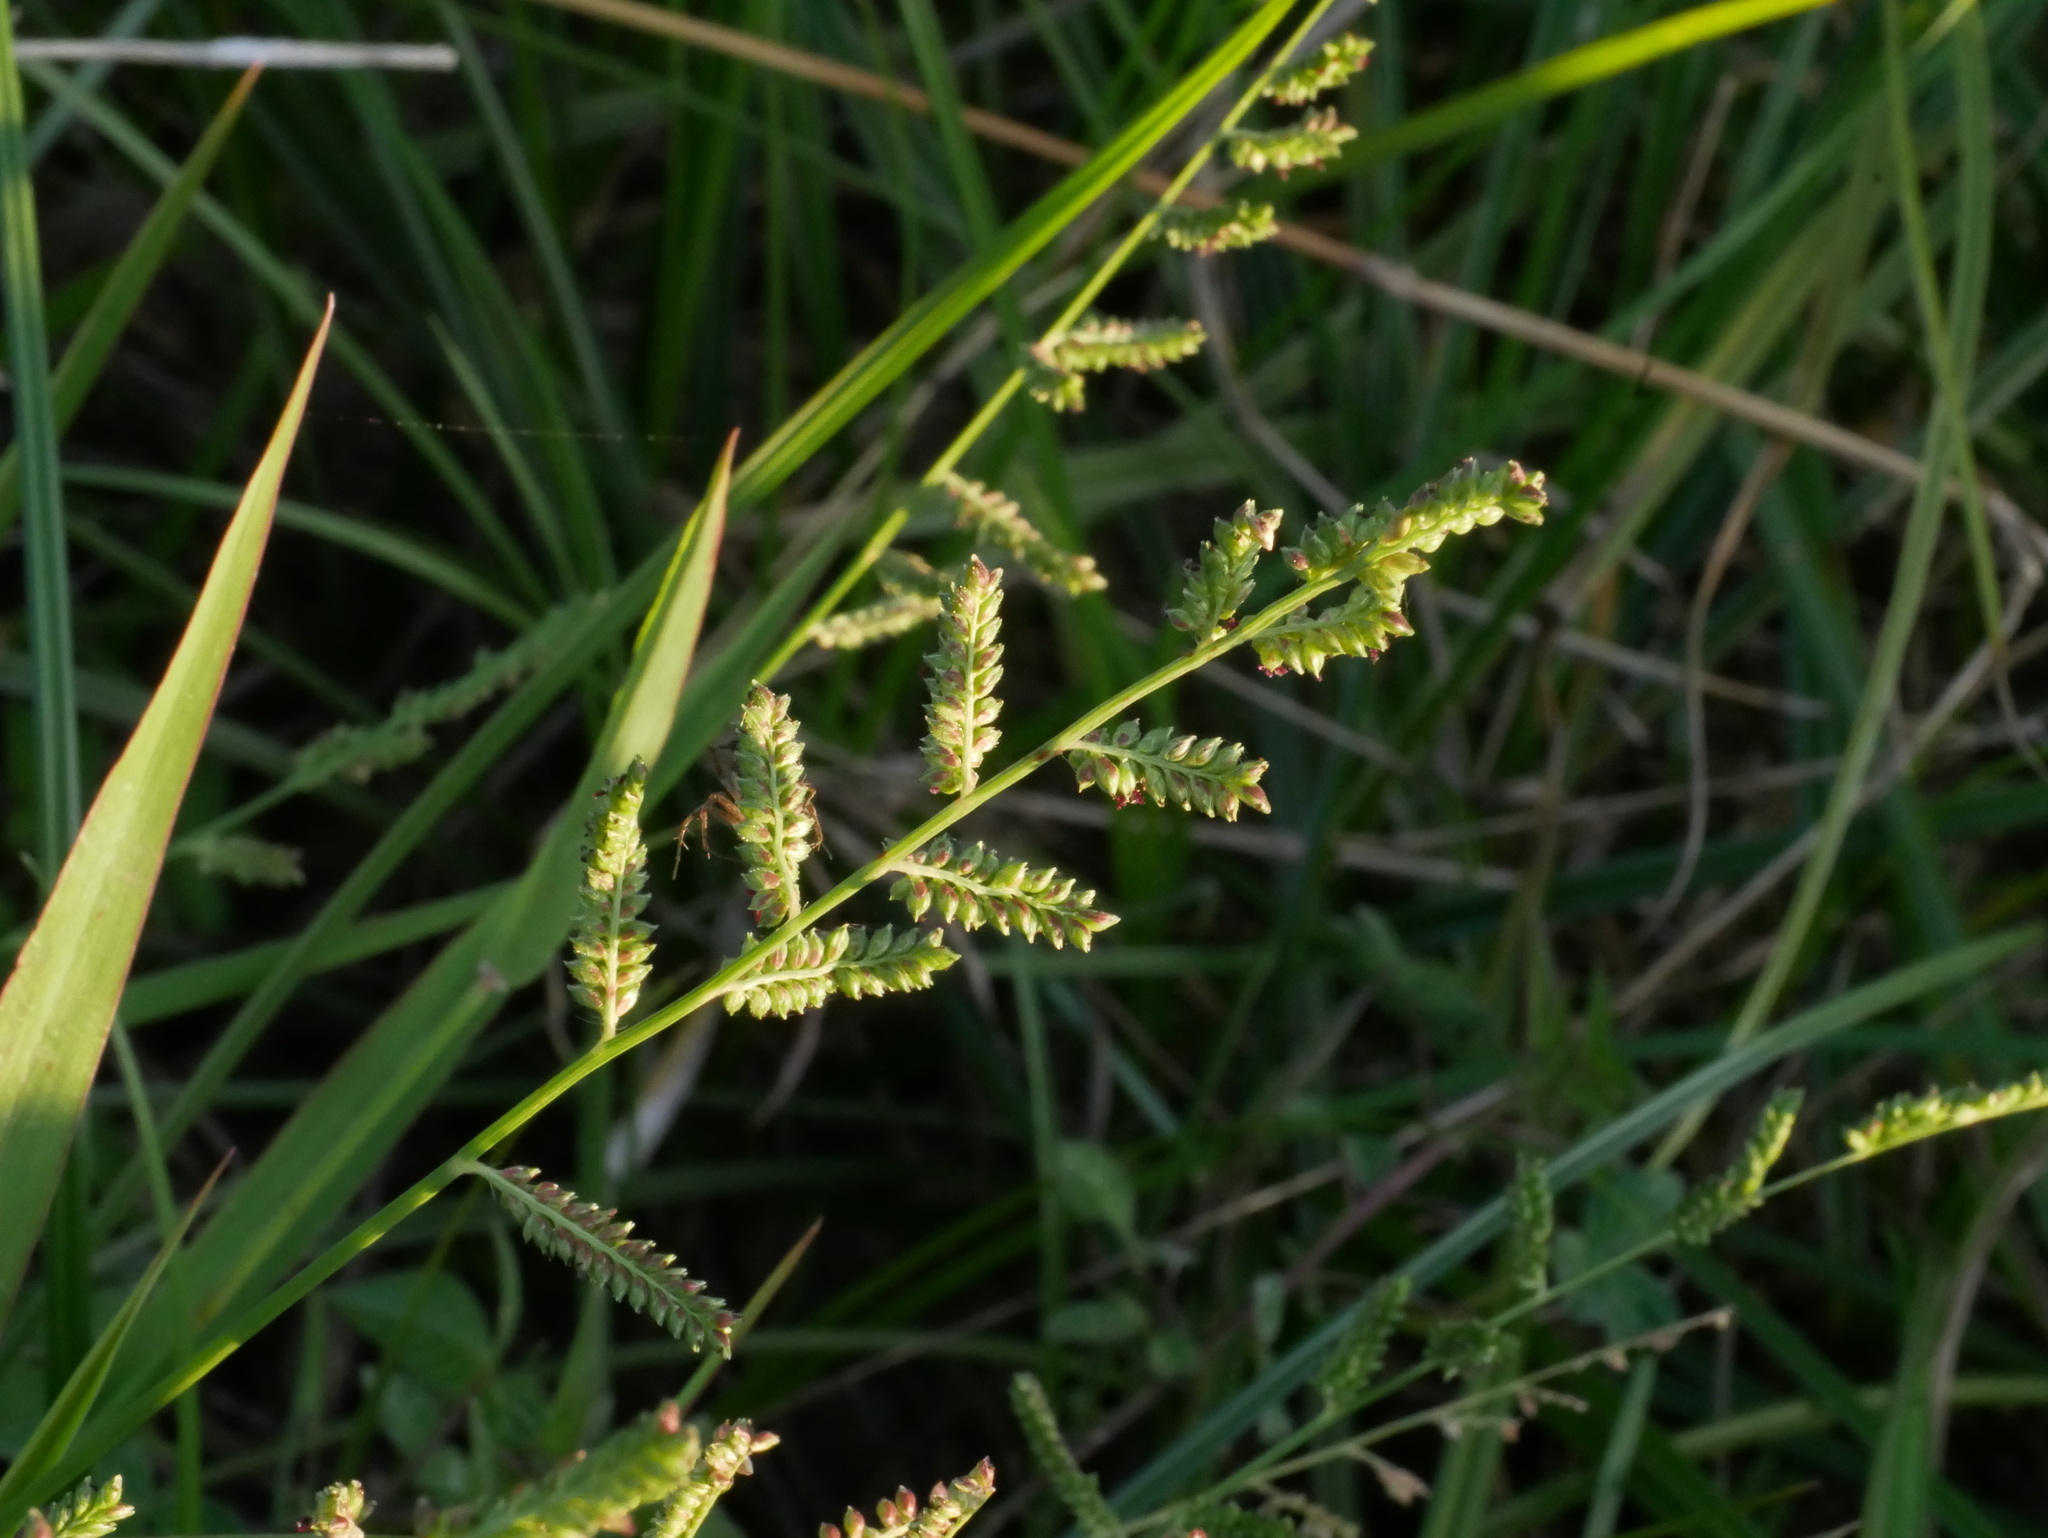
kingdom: Plantae
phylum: Tracheophyta
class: Liliopsida
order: Poales
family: Poaceae
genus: Echinochloa
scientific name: Echinochloa colonum
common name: Jungle rice
